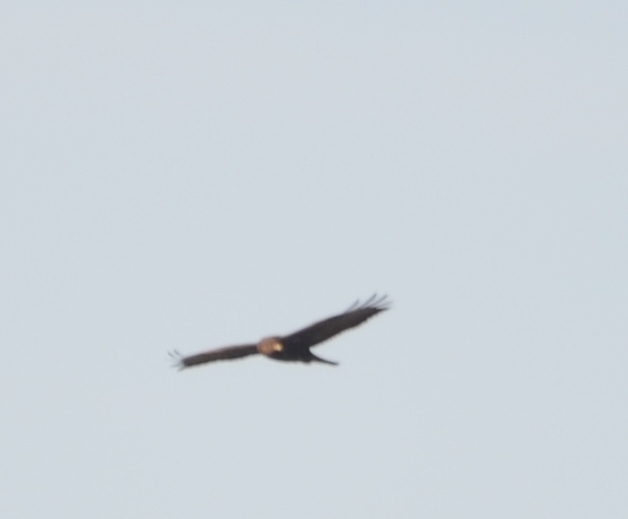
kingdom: Animalia
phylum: Chordata
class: Aves
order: Accipitriformes
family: Accipitridae
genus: Buteo
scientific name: Buteo buteo
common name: Common buzzard
